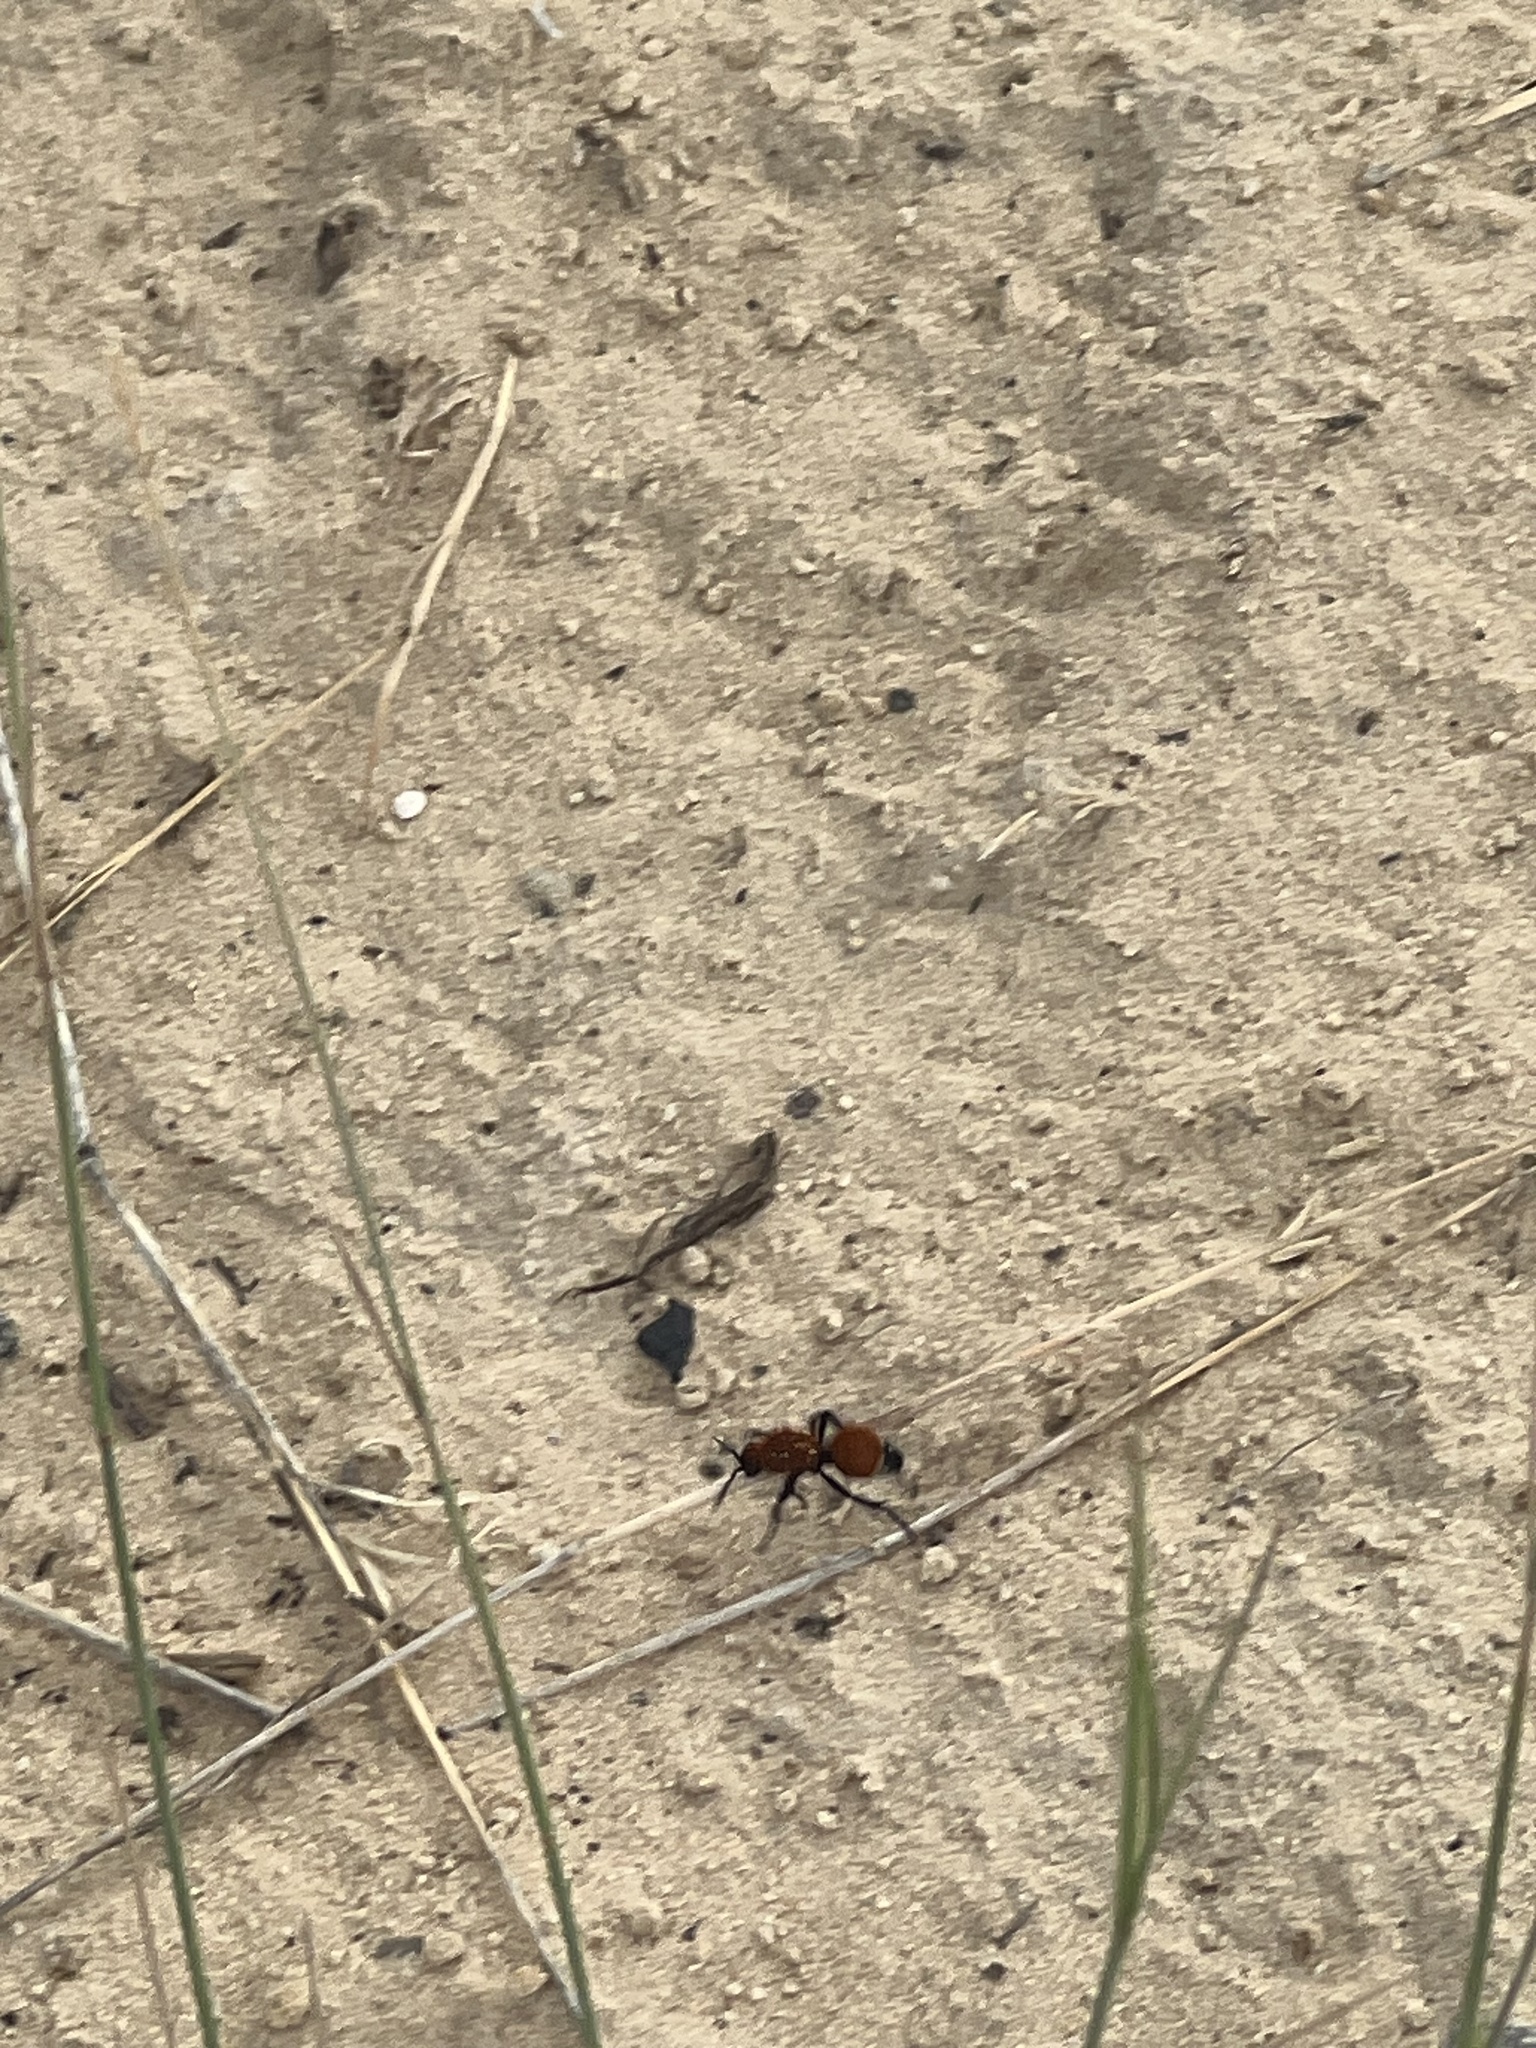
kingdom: Animalia
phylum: Arthropoda
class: Insecta
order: Hymenoptera
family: Mutillidae
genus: Dasymutilla
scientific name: Dasymutilla
